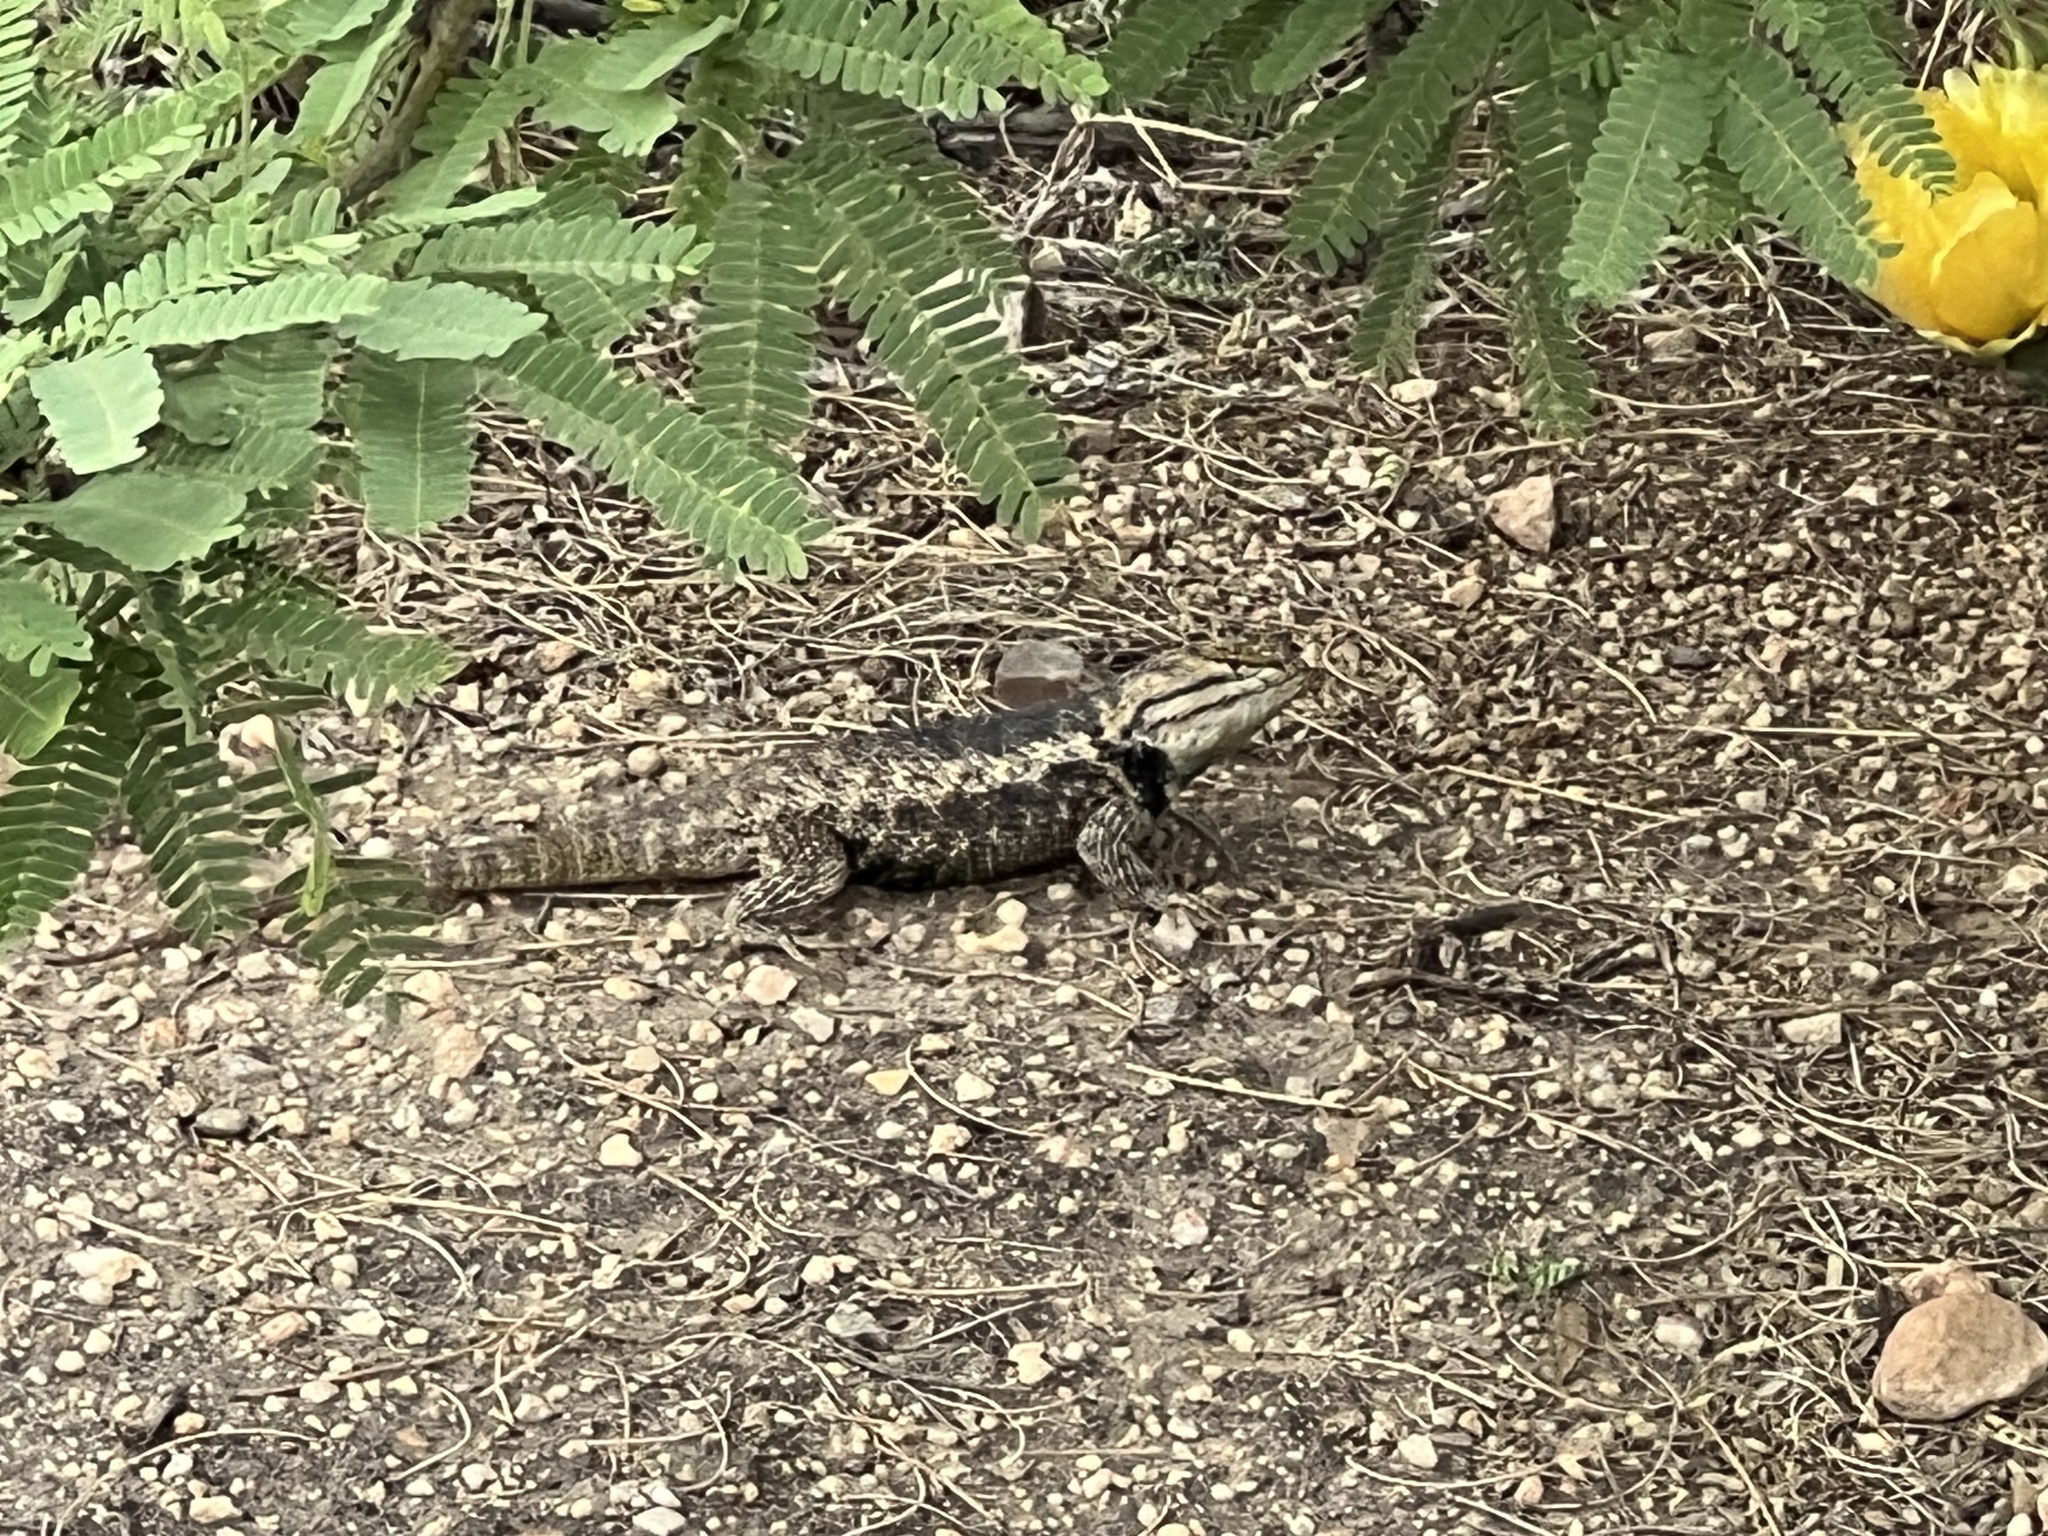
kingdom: Animalia
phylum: Chordata
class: Squamata
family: Phrynosomatidae
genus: Sceloporus
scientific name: Sceloporus bimaculosus
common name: Twin-spotted spiny lizard
